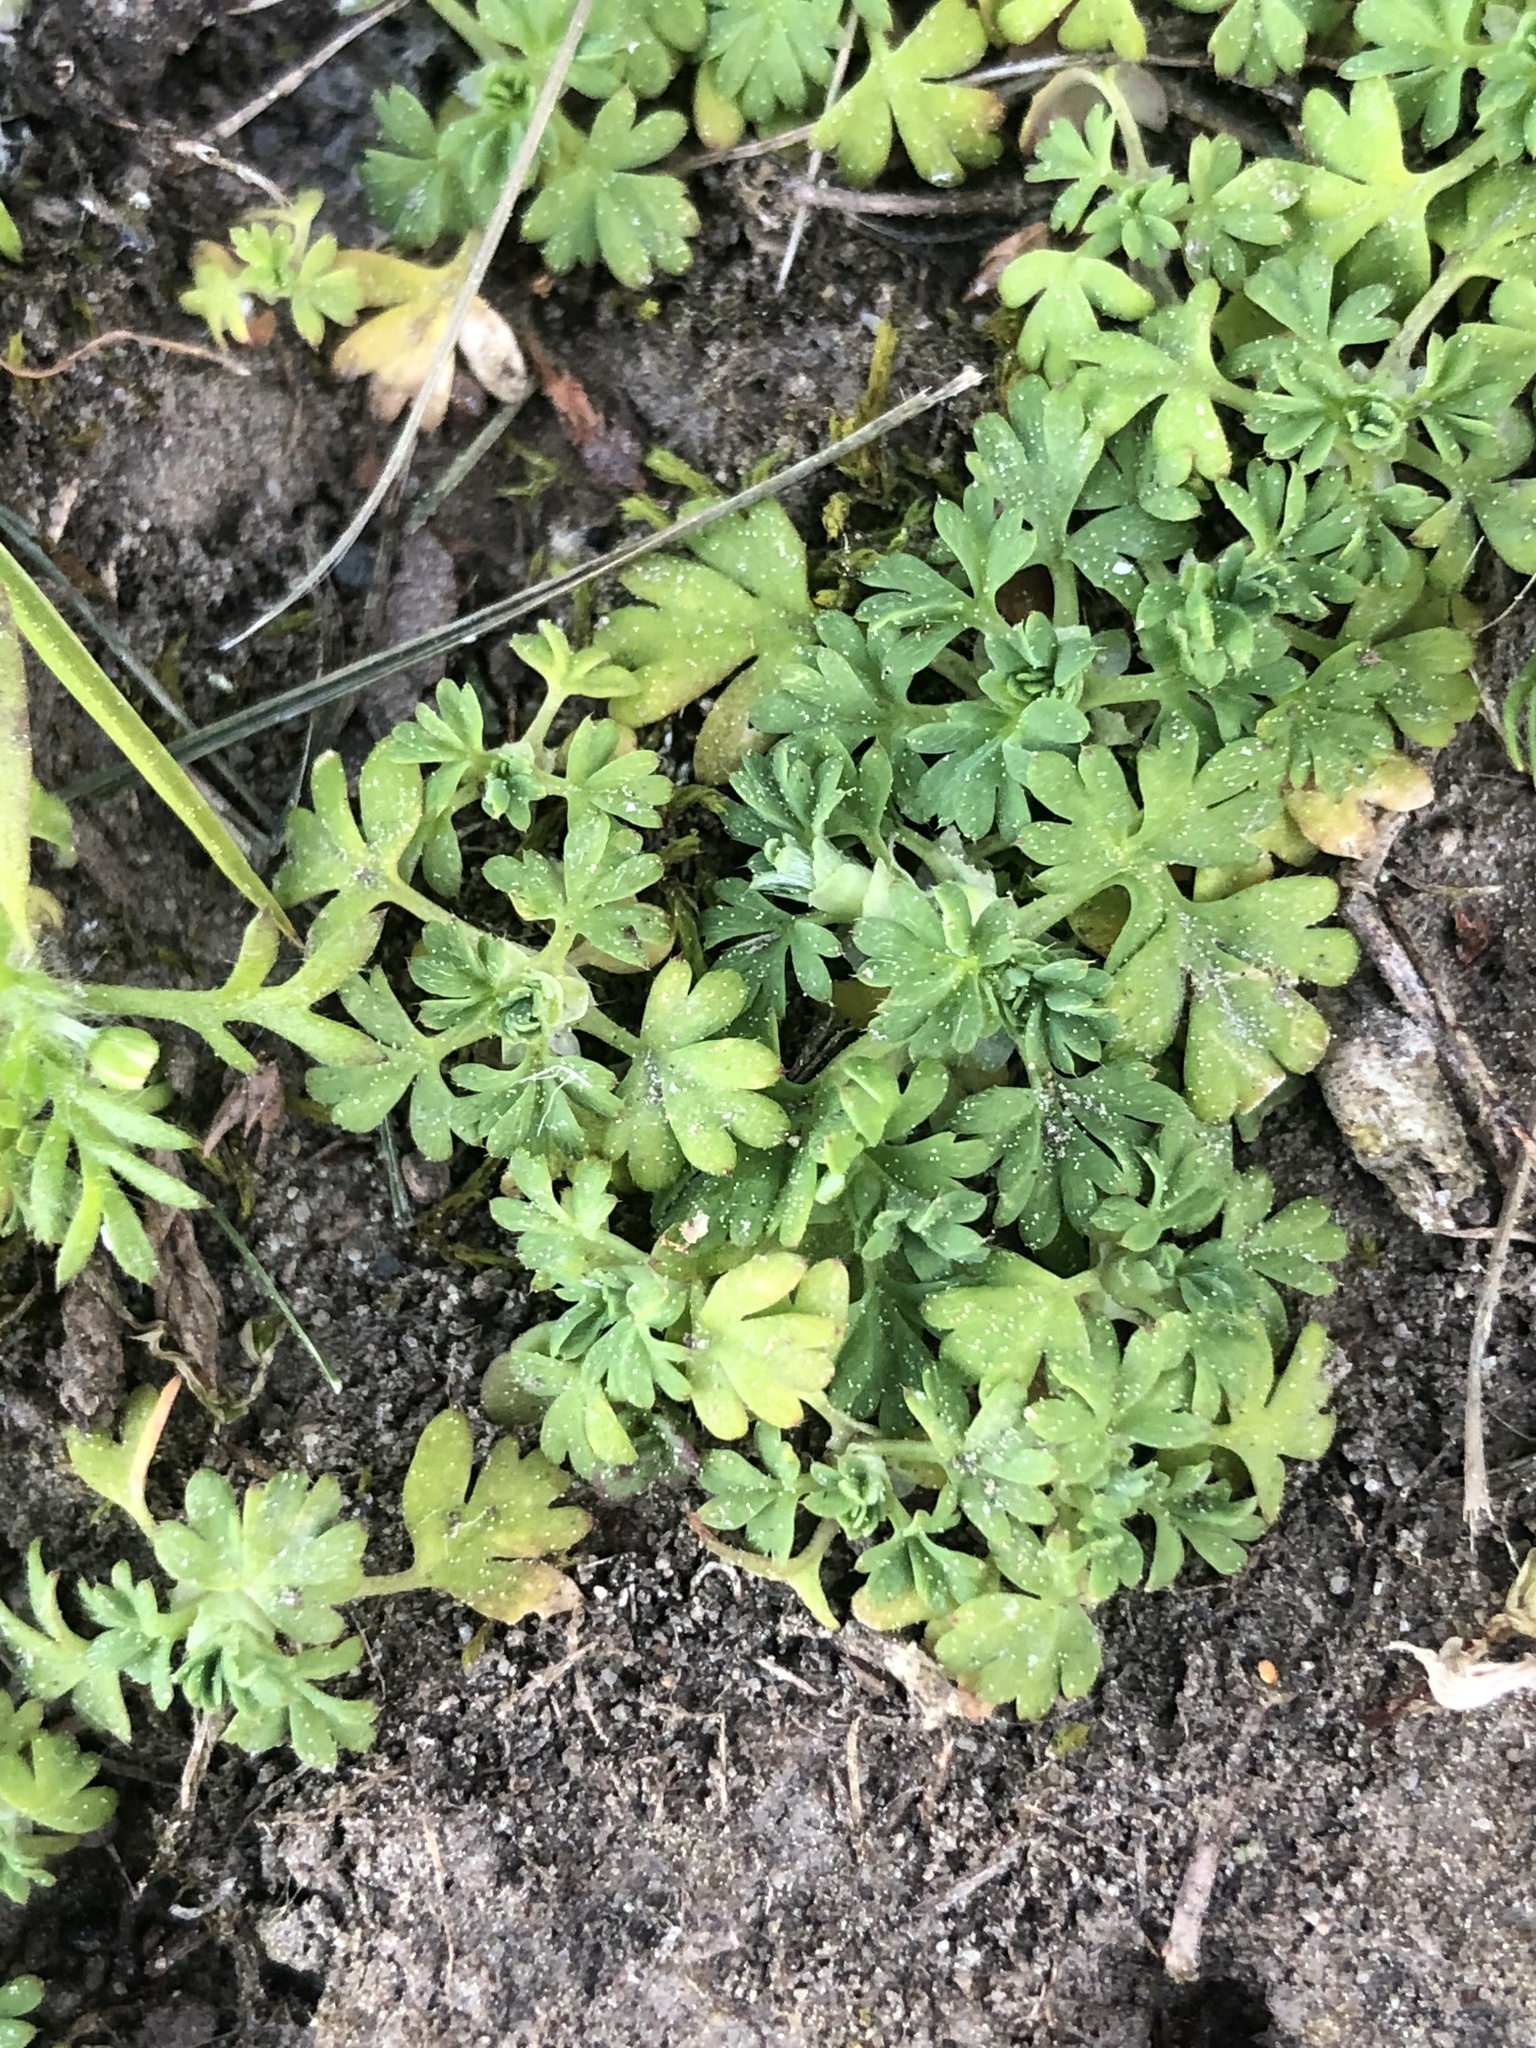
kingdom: Plantae
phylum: Tracheophyta
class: Magnoliopsida
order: Rosales
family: Rosaceae
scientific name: Rosaceae
